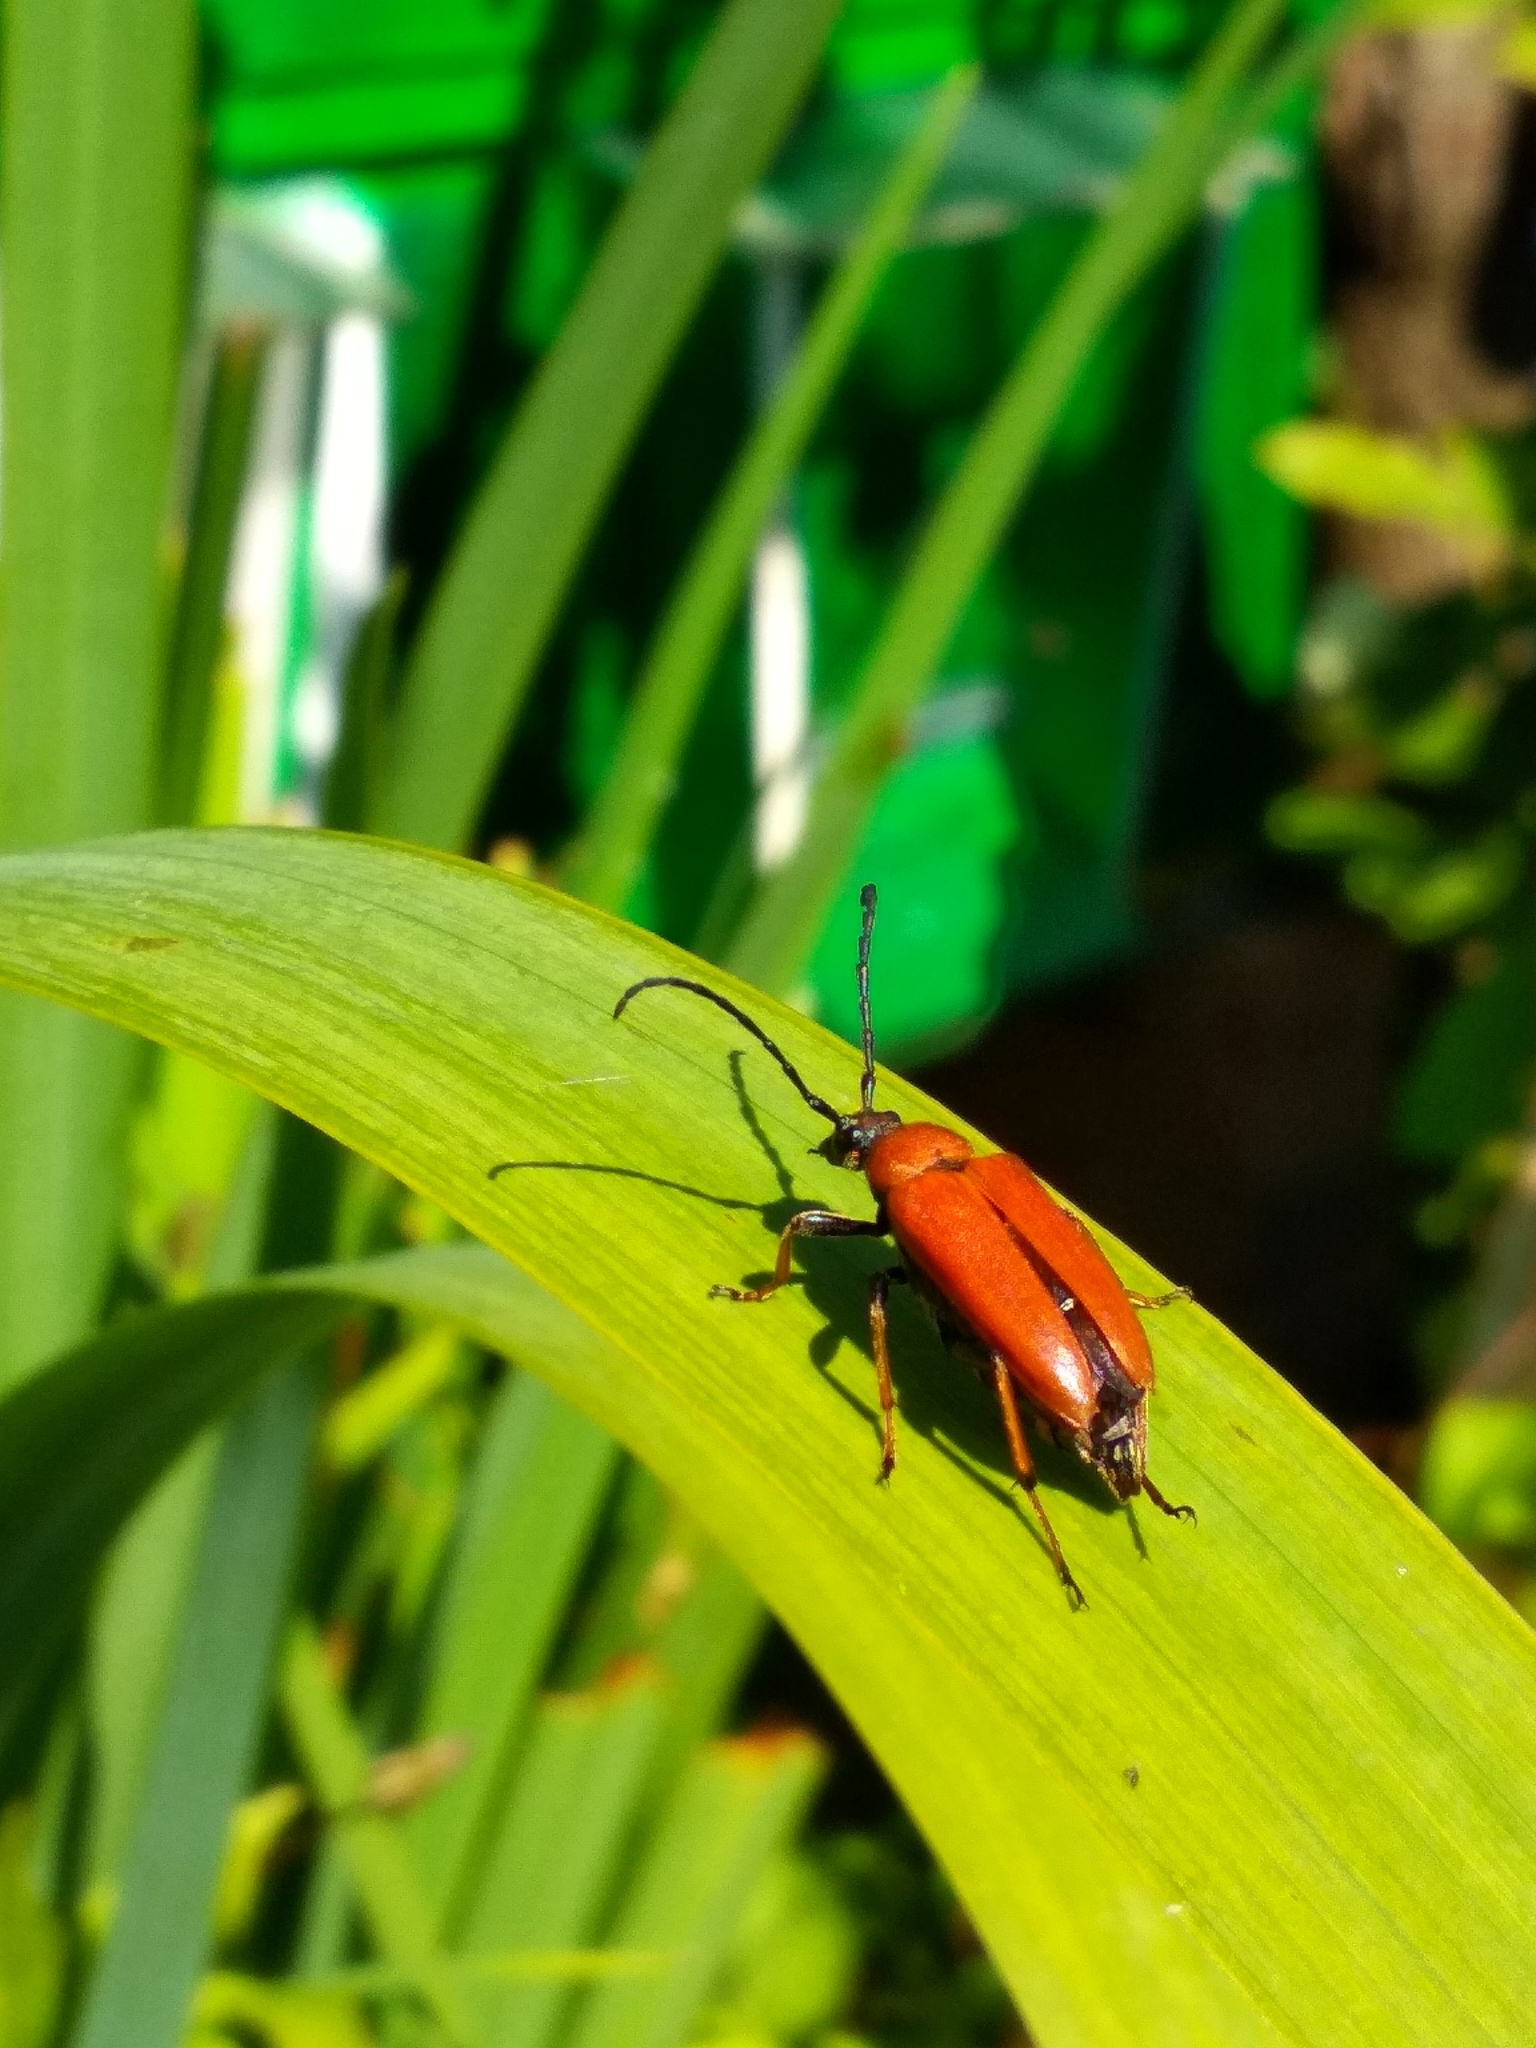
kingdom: Animalia
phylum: Arthropoda
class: Insecta
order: Coleoptera
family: Cerambycidae
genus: Stictoleptura
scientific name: Stictoleptura rubra
